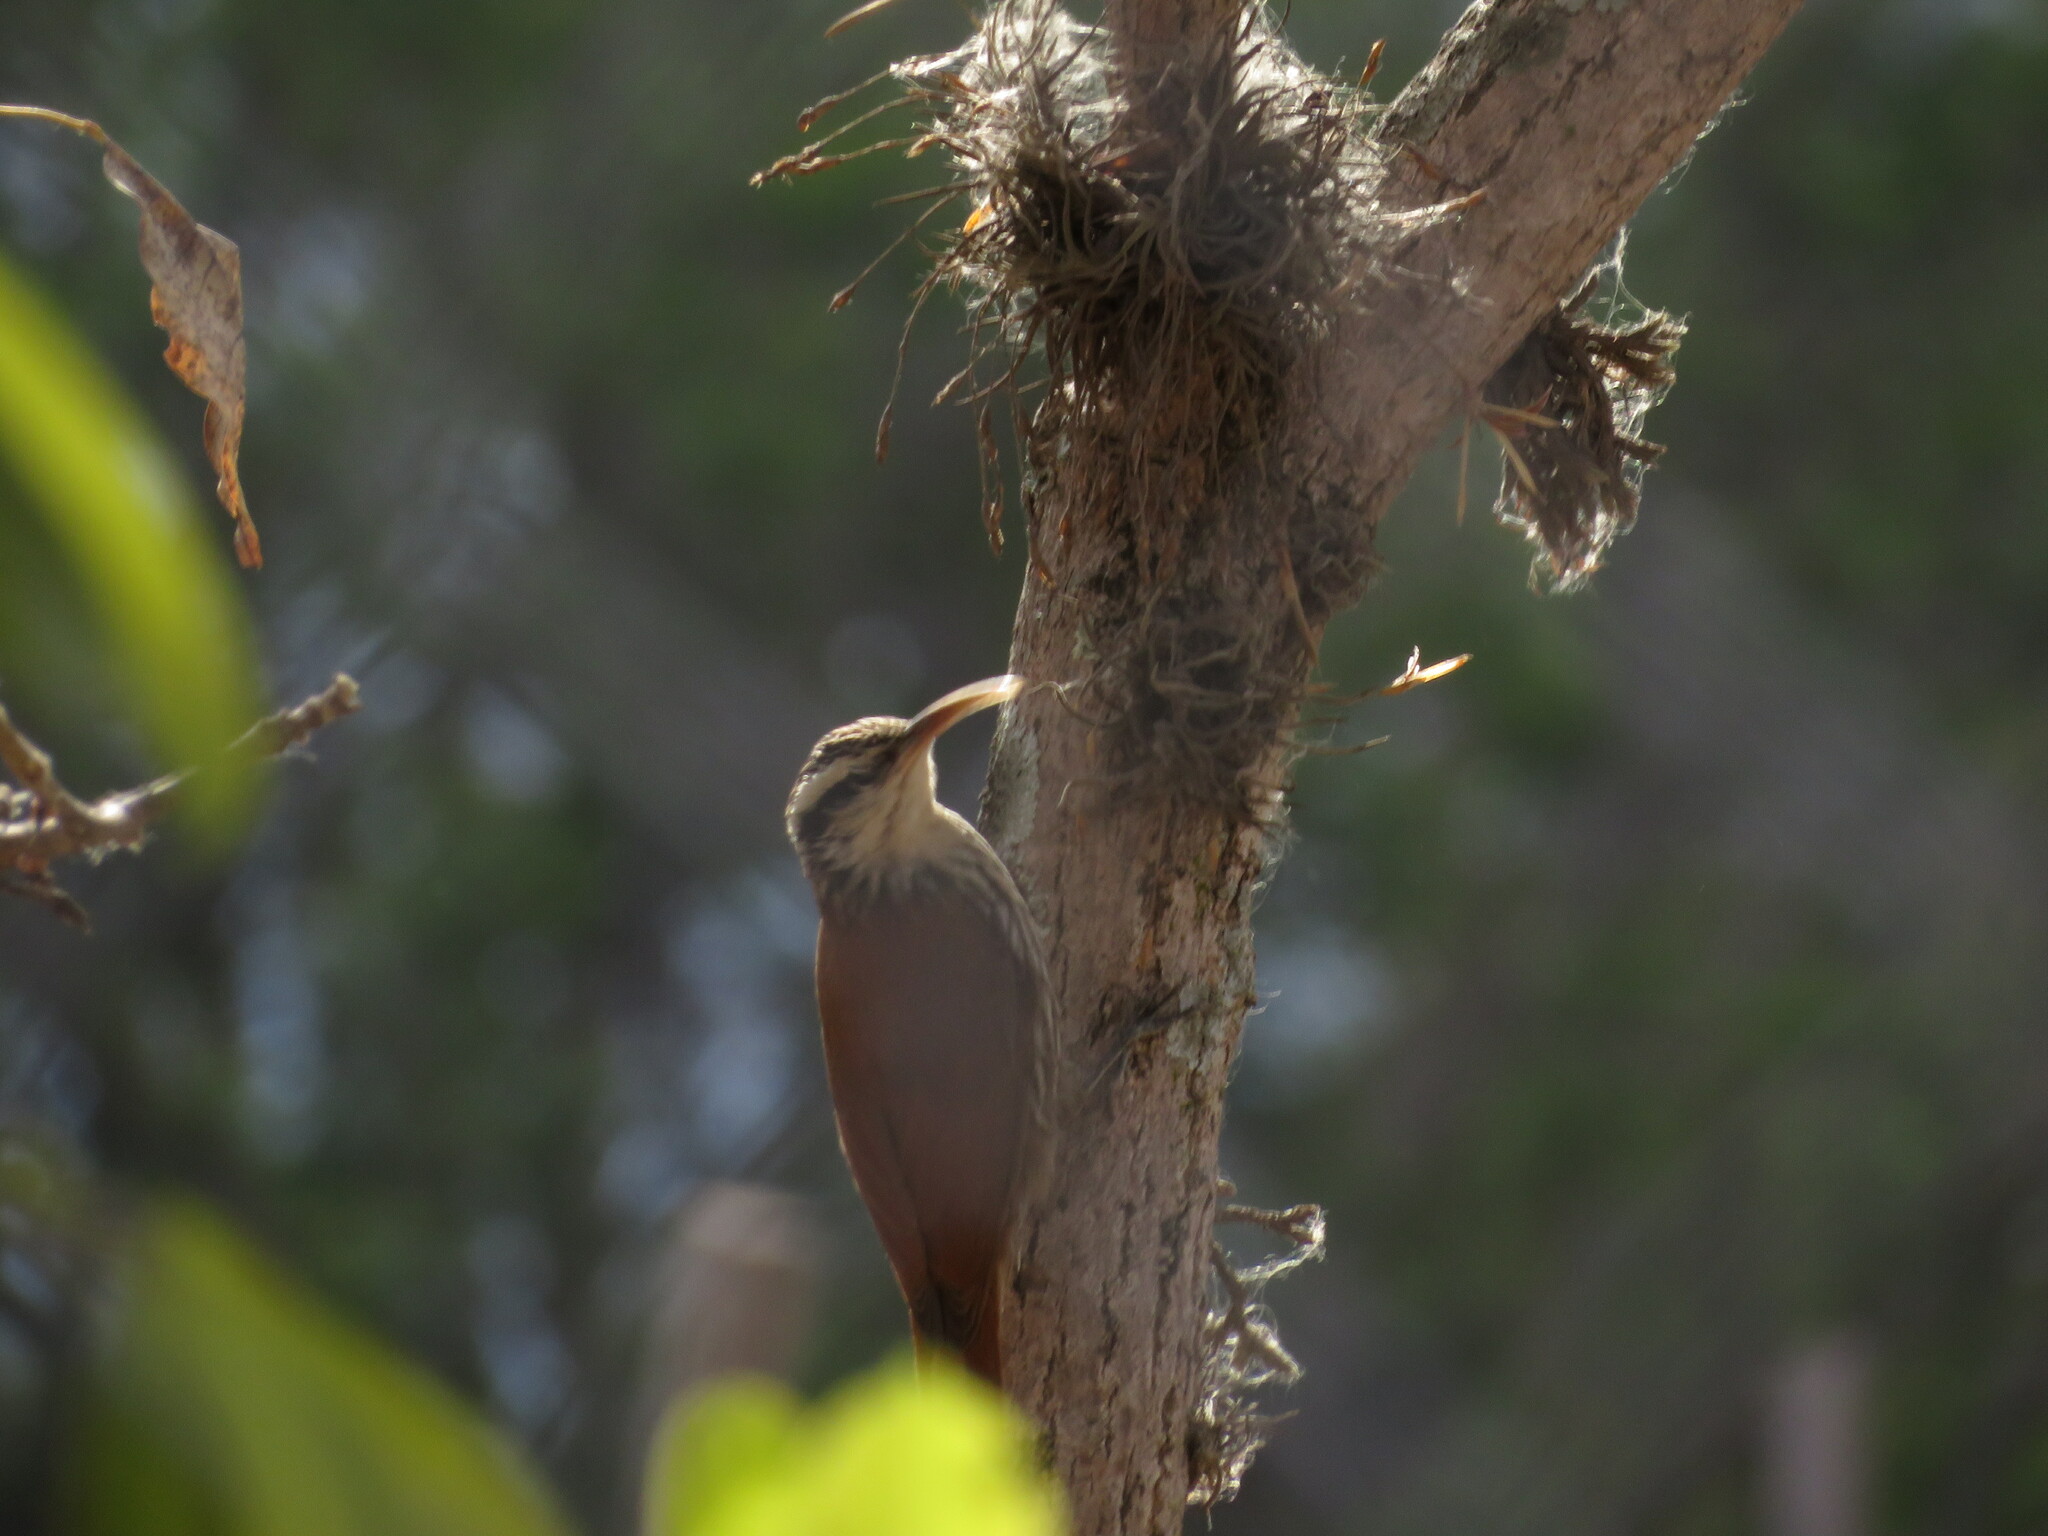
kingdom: Animalia
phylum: Chordata
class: Aves
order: Passeriformes
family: Furnariidae
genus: Lepidocolaptes
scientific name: Lepidocolaptes angustirostris
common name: Narrow-billed woodcreeper
